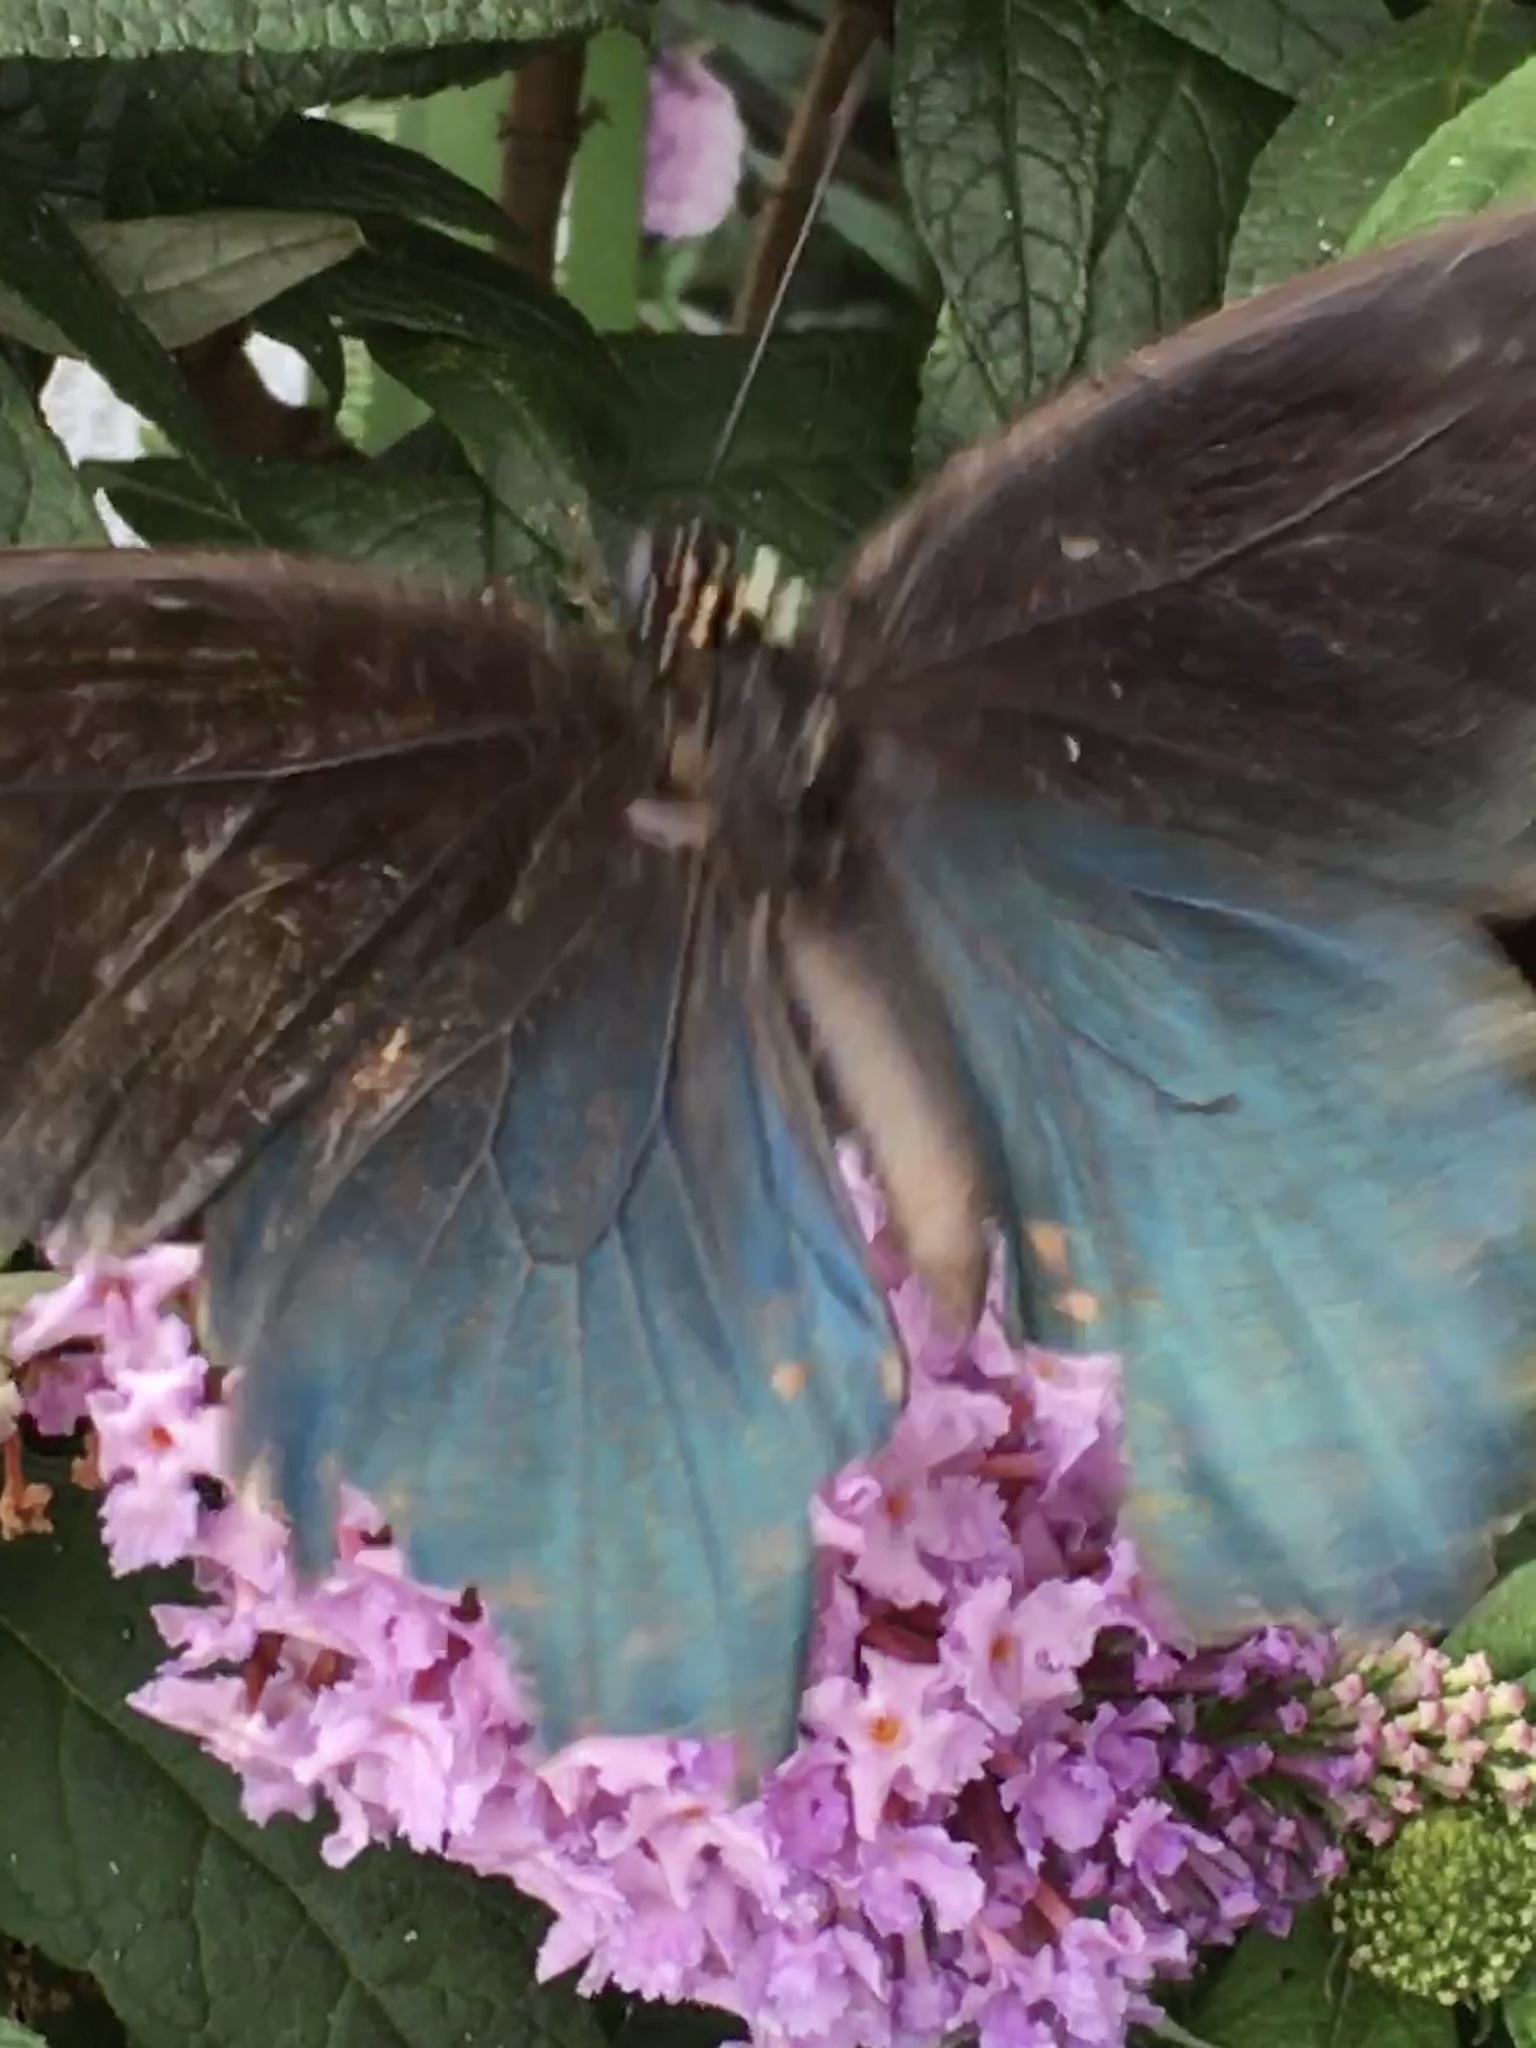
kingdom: Animalia
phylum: Arthropoda
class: Insecta
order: Lepidoptera
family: Papilionidae
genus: Battus
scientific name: Battus philenor
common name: Pipevine swallowtail
